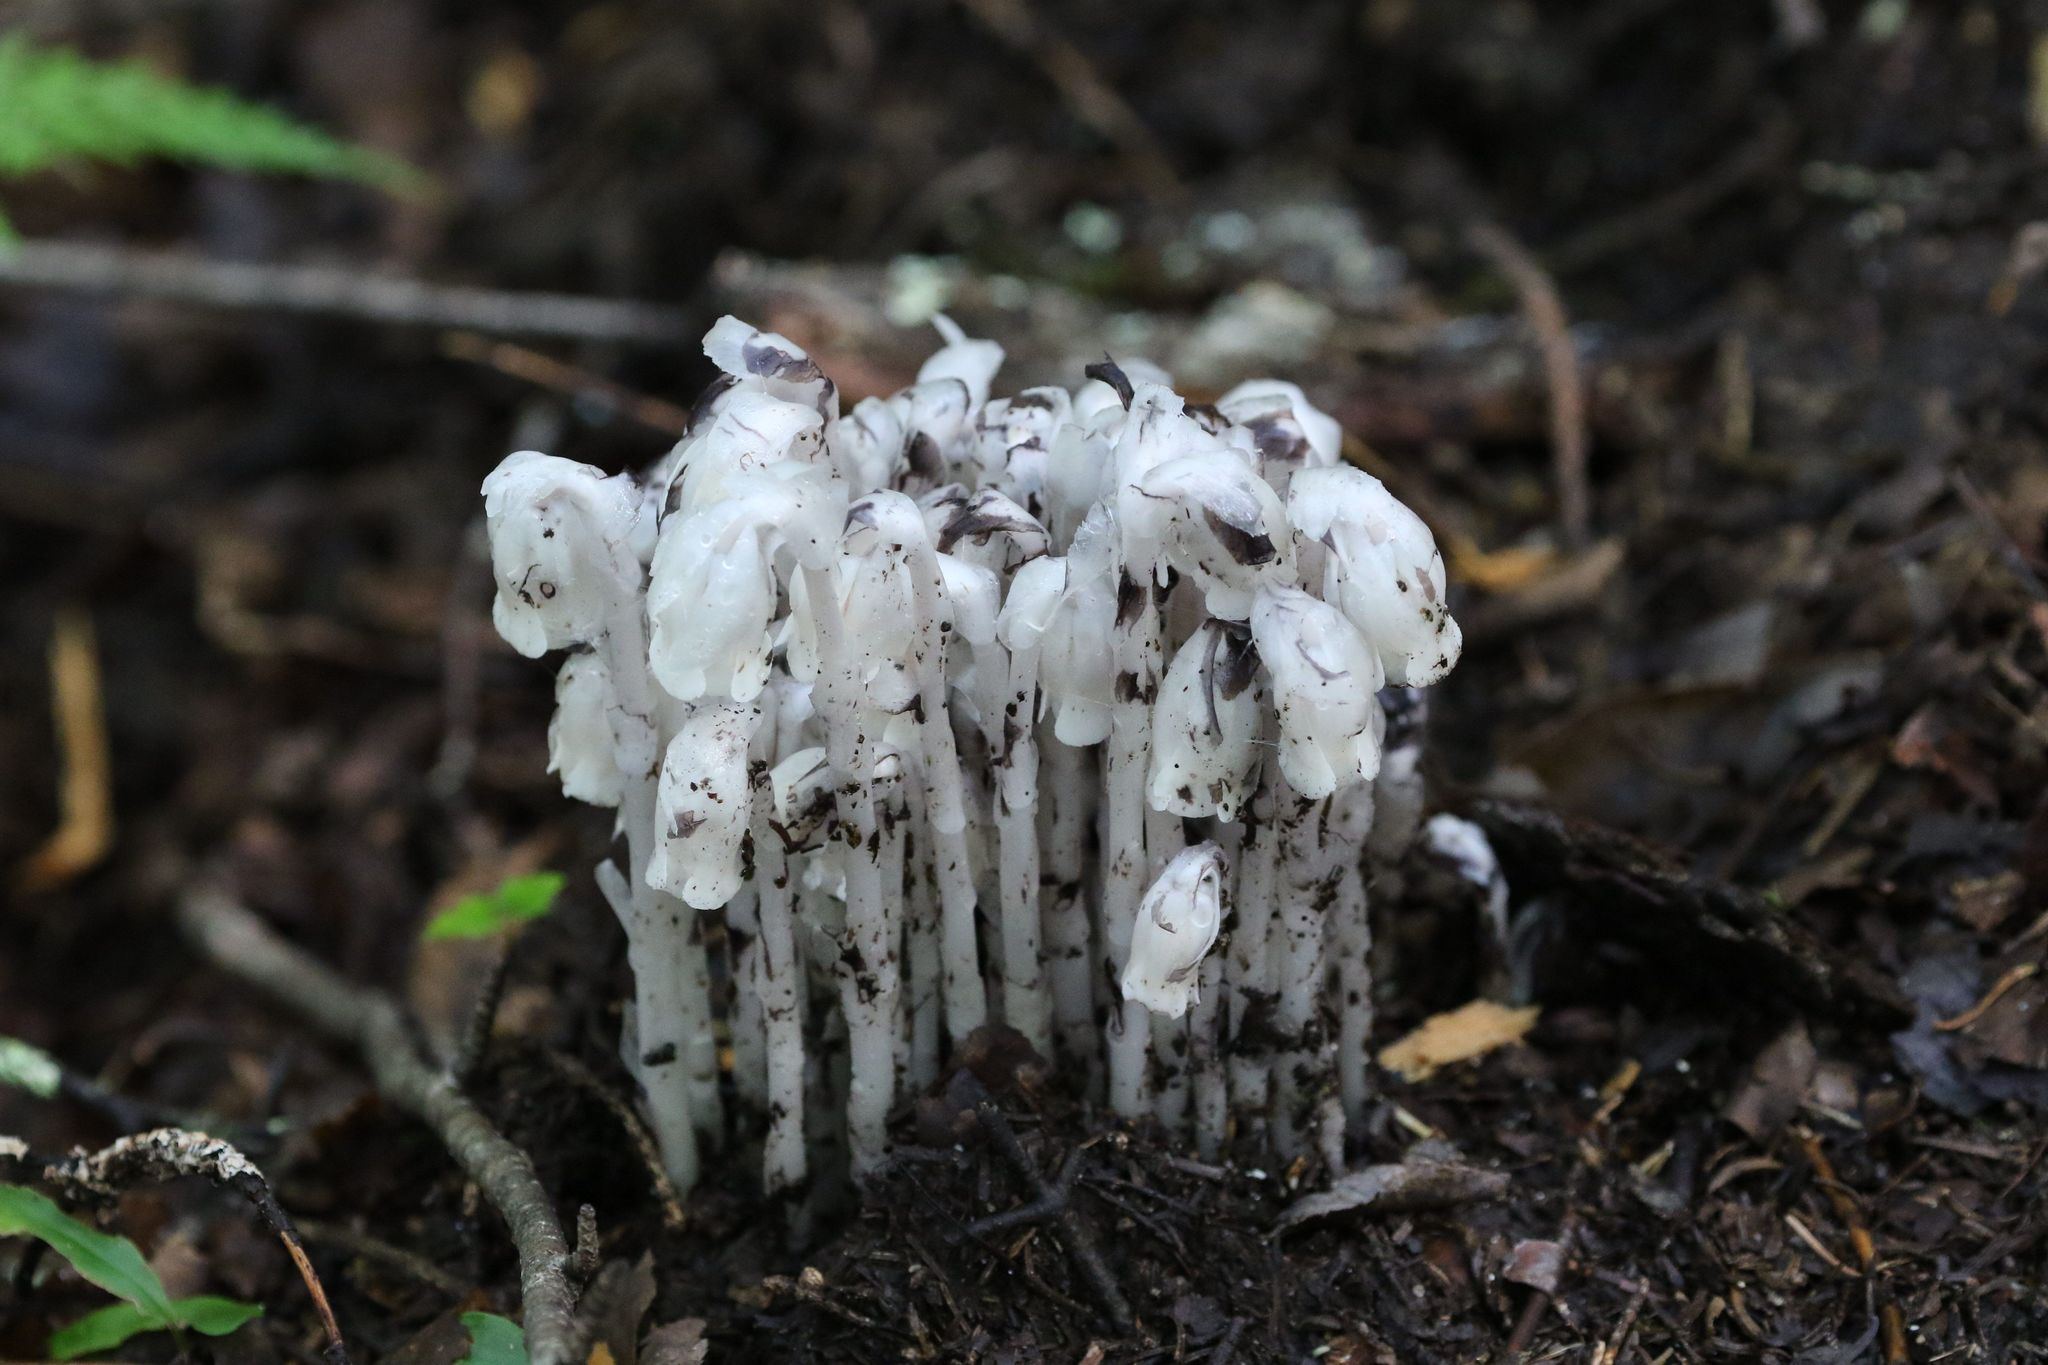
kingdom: Plantae
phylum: Tracheophyta
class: Magnoliopsida
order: Ericales
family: Ericaceae
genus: Monotropa
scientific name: Monotropa uniflora
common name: Convulsion root
